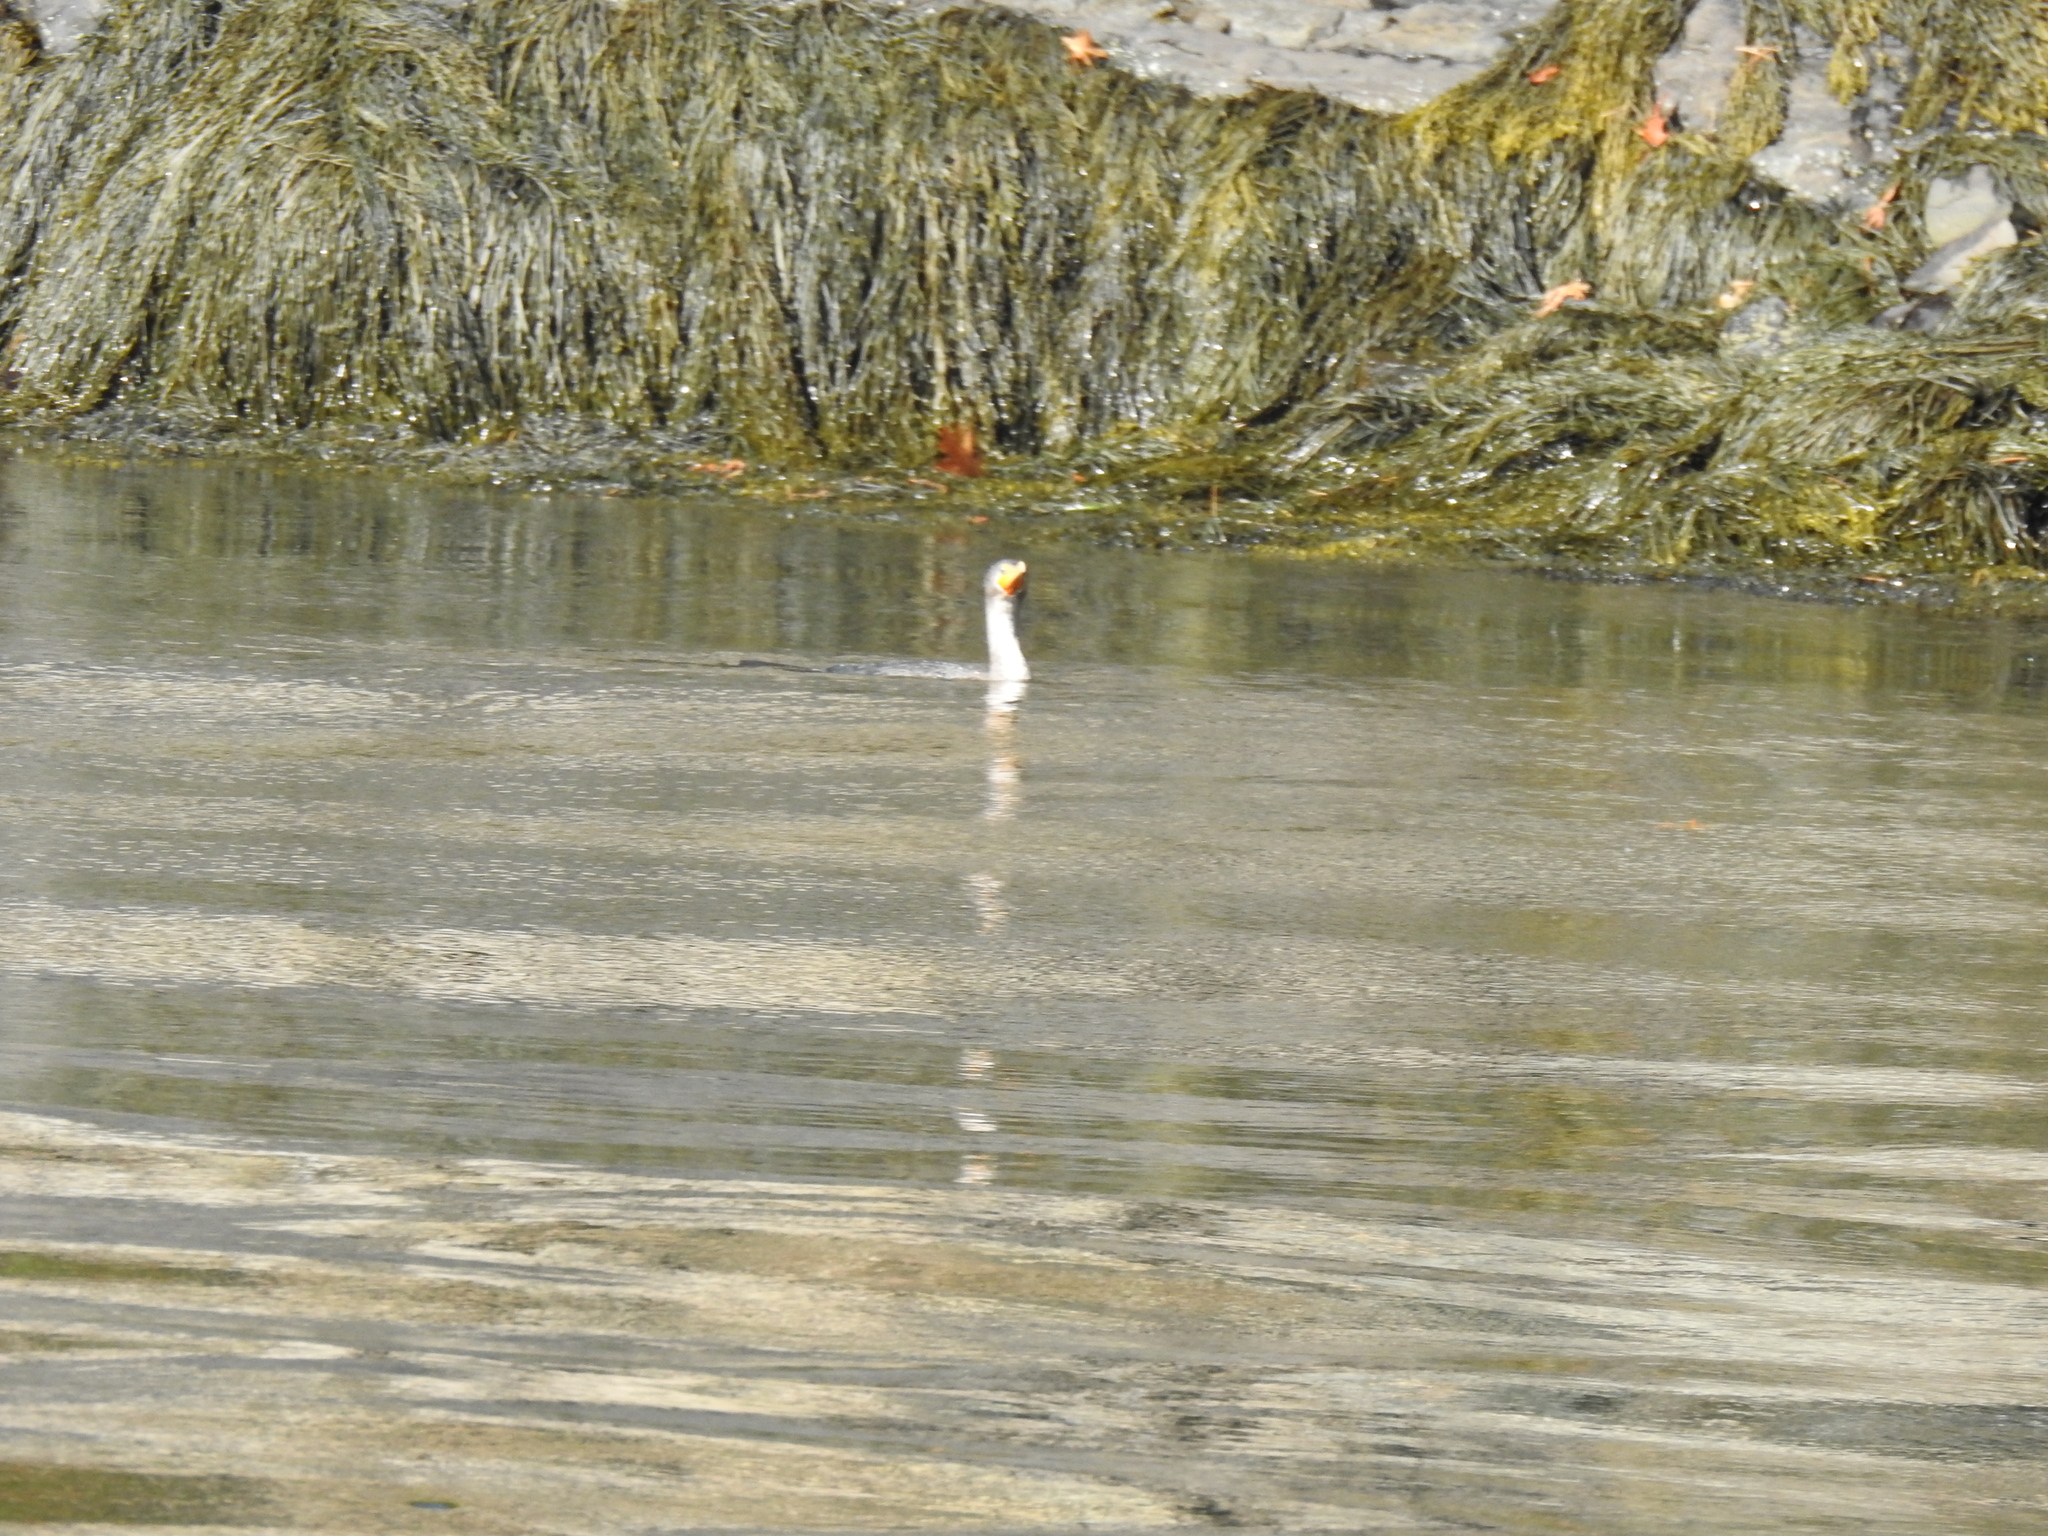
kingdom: Animalia
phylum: Chordata
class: Aves
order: Suliformes
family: Phalacrocoracidae
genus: Phalacrocorax
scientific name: Phalacrocorax auritus
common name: Double-crested cormorant
